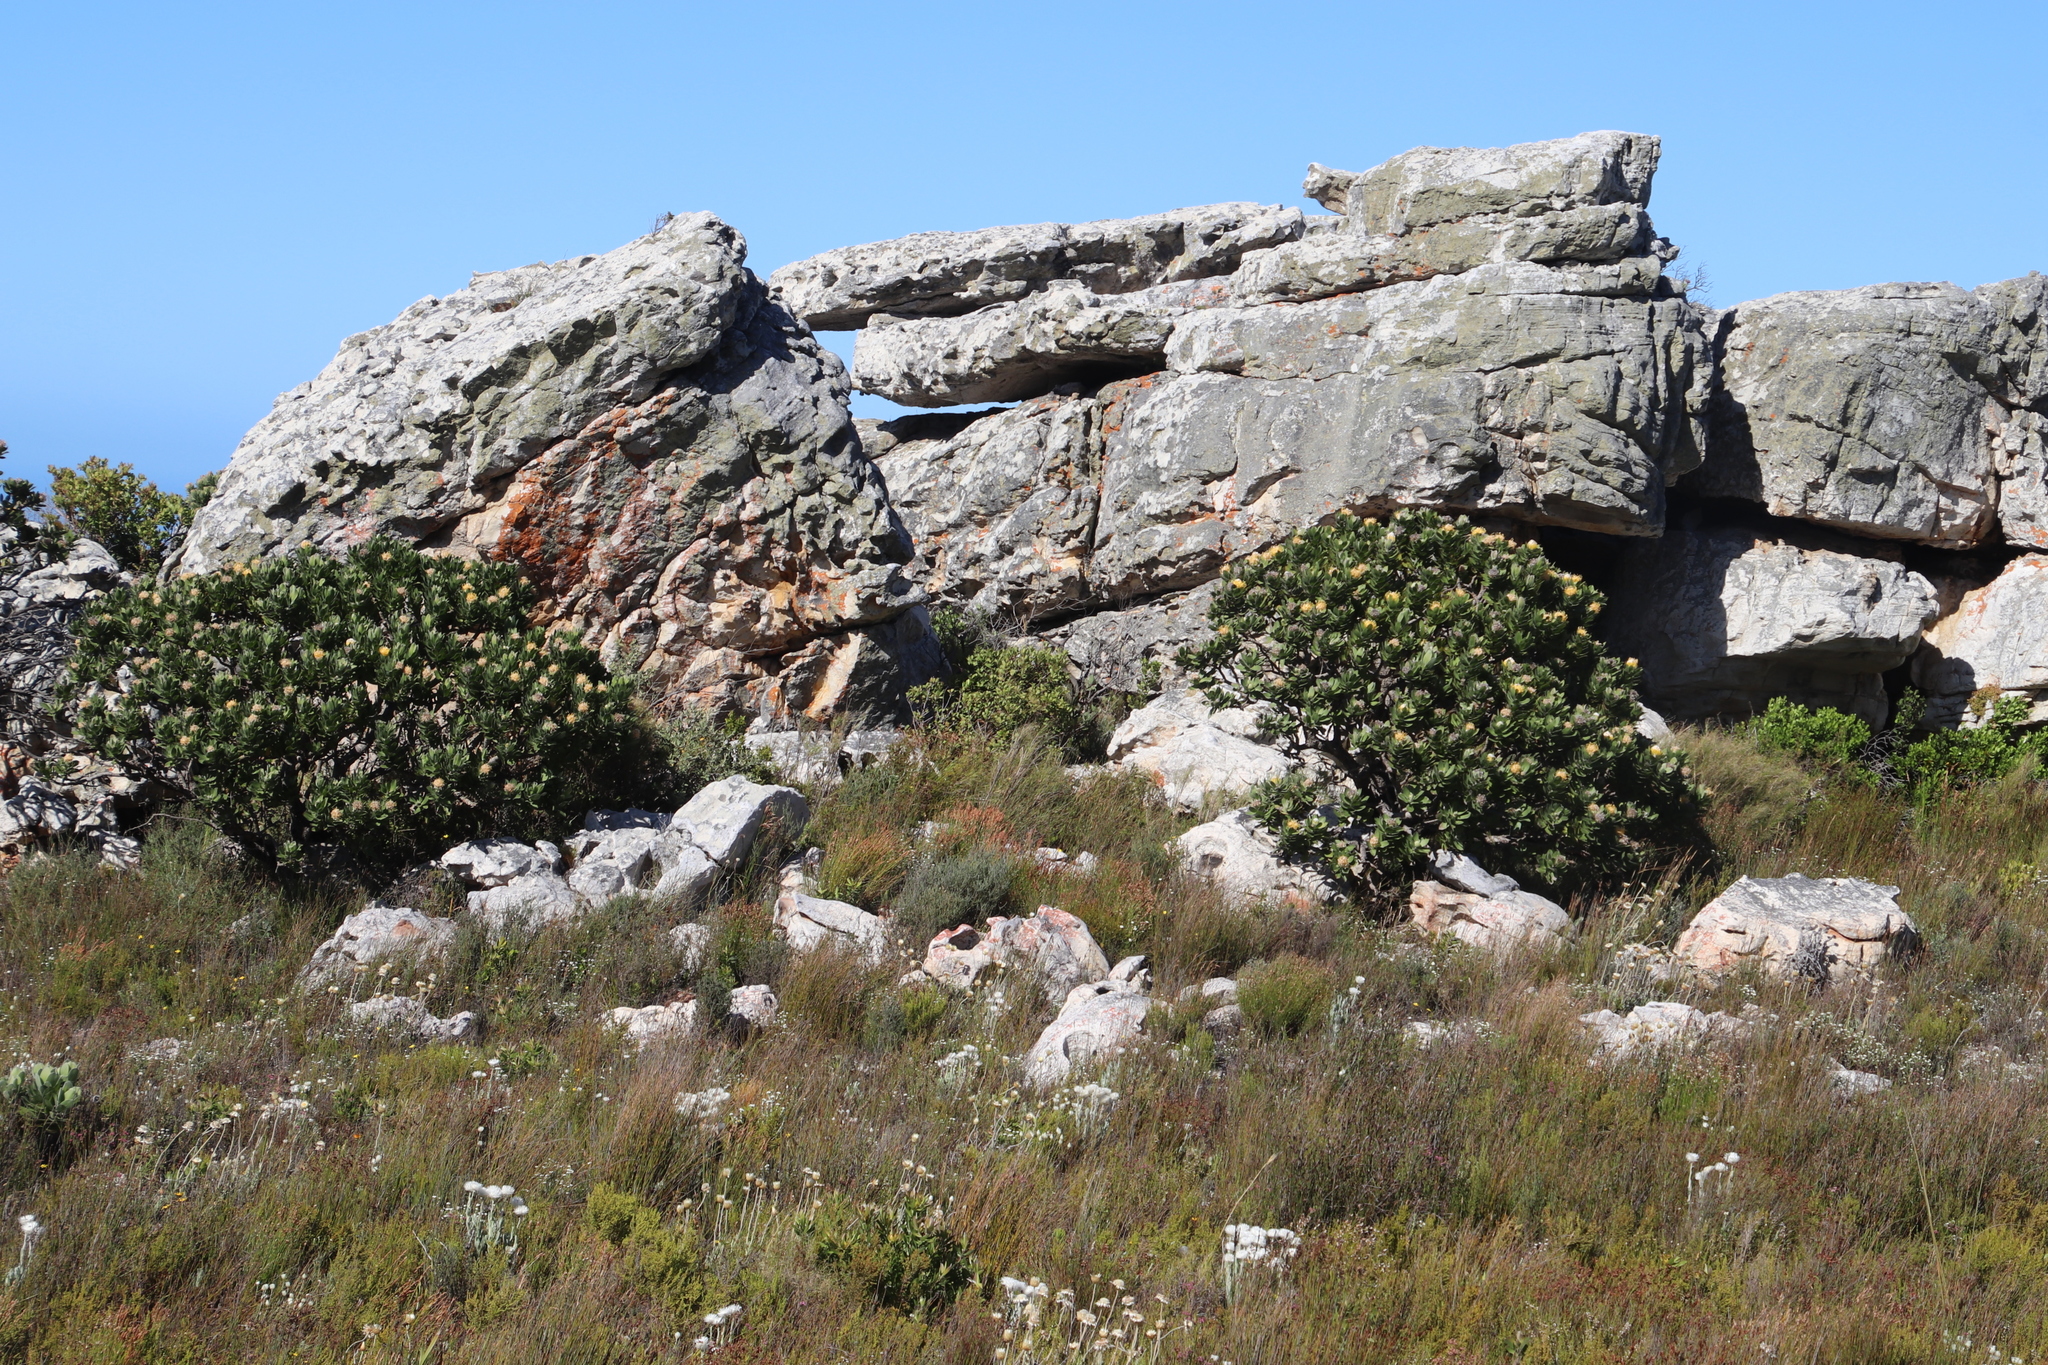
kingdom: Plantae
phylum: Tracheophyta
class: Magnoliopsida
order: Proteales
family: Proteaceae
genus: Leucospermum
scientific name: Leucospermum conocarpodendron
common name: Tree pincushion
